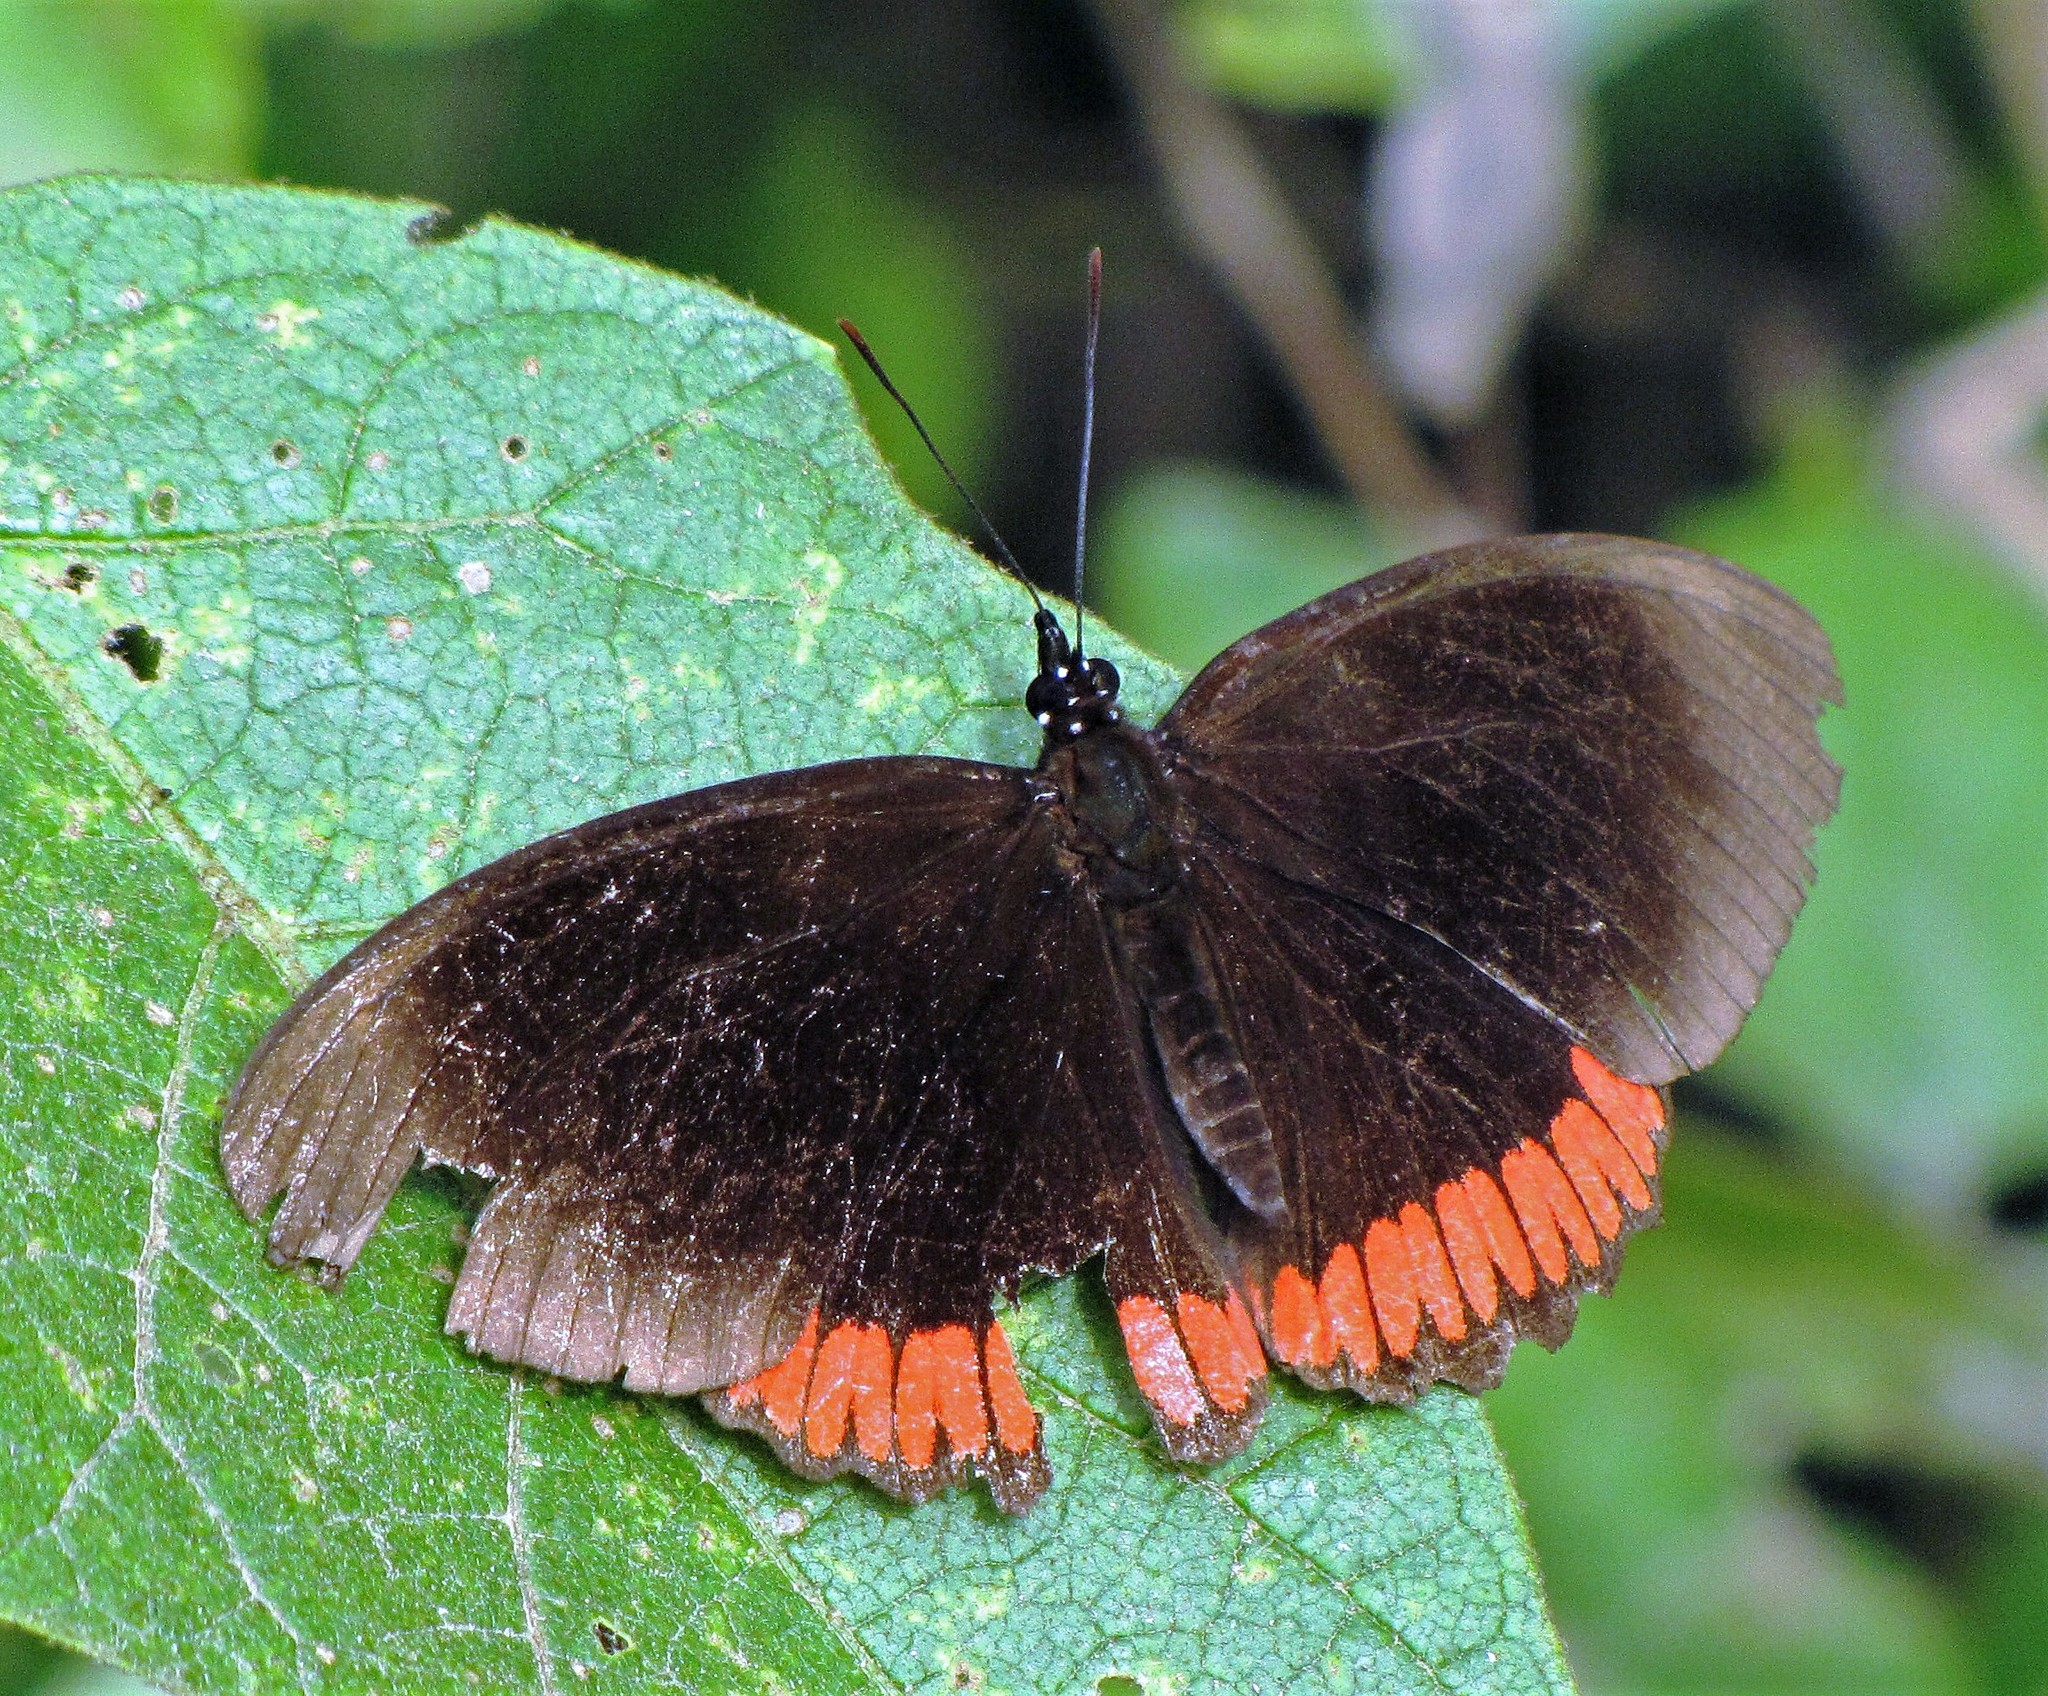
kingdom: Animalia
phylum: Arthropoda
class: Insecta
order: Lepidoptera
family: Sesiidae
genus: Sesia
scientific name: Sesia Biblis hyperia
